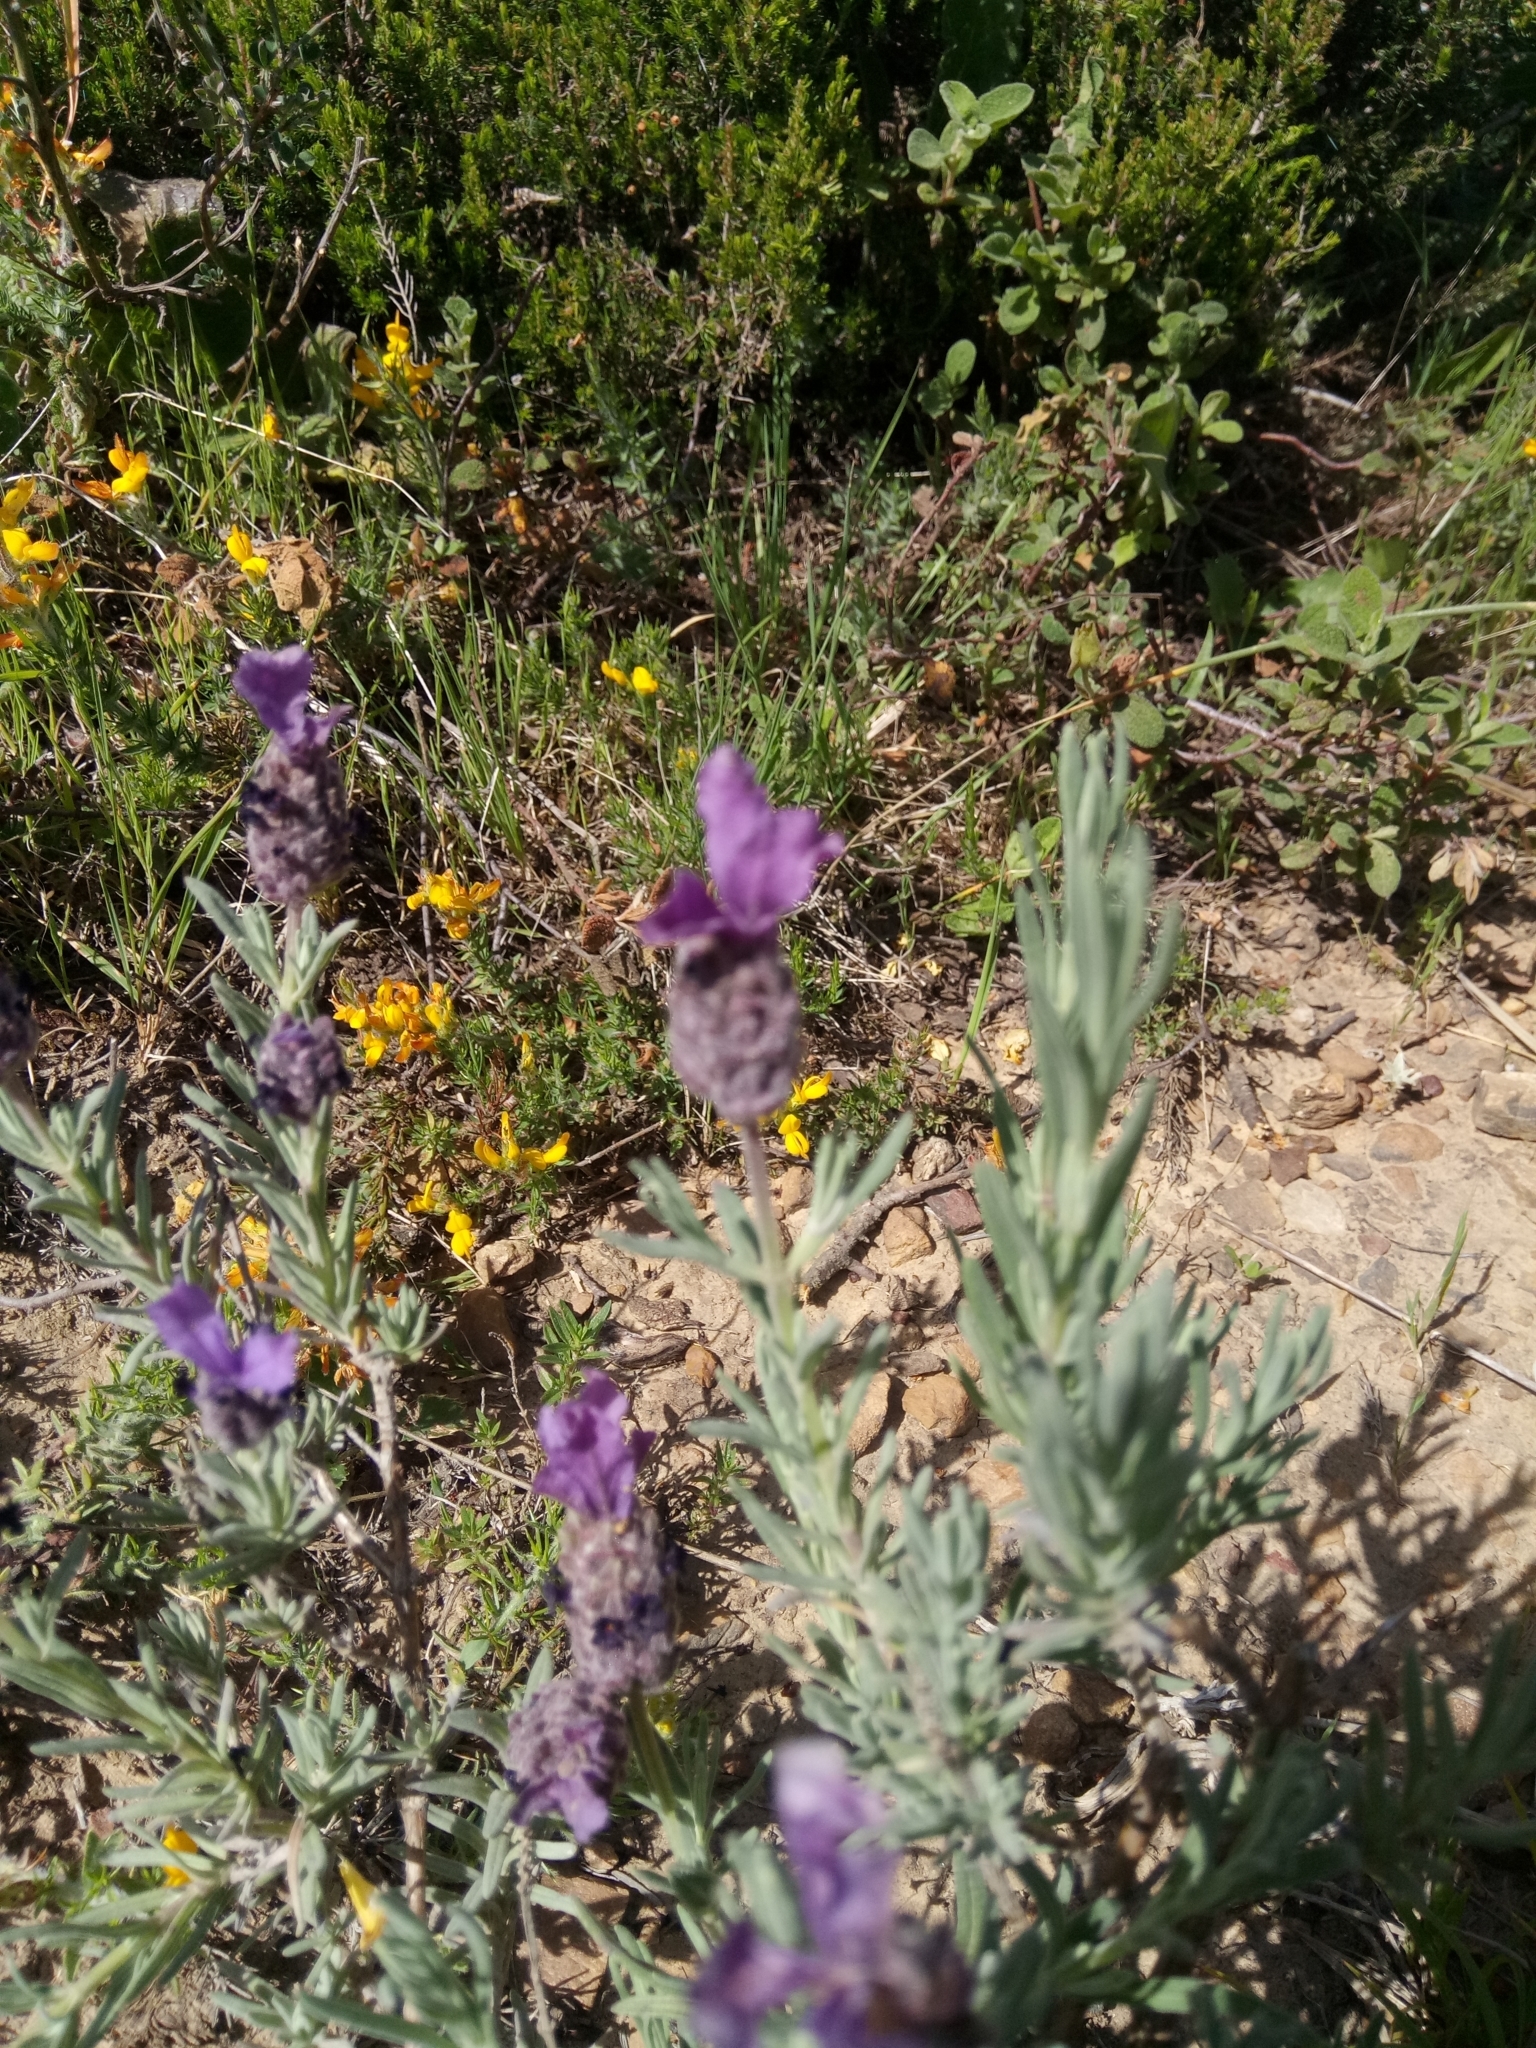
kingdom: Plantae
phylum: Tracheophyta
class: Magnoliopsida
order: Lamiales
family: Lamiaceae
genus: Lavandula
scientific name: Lavandula stoechas
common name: French lavender
